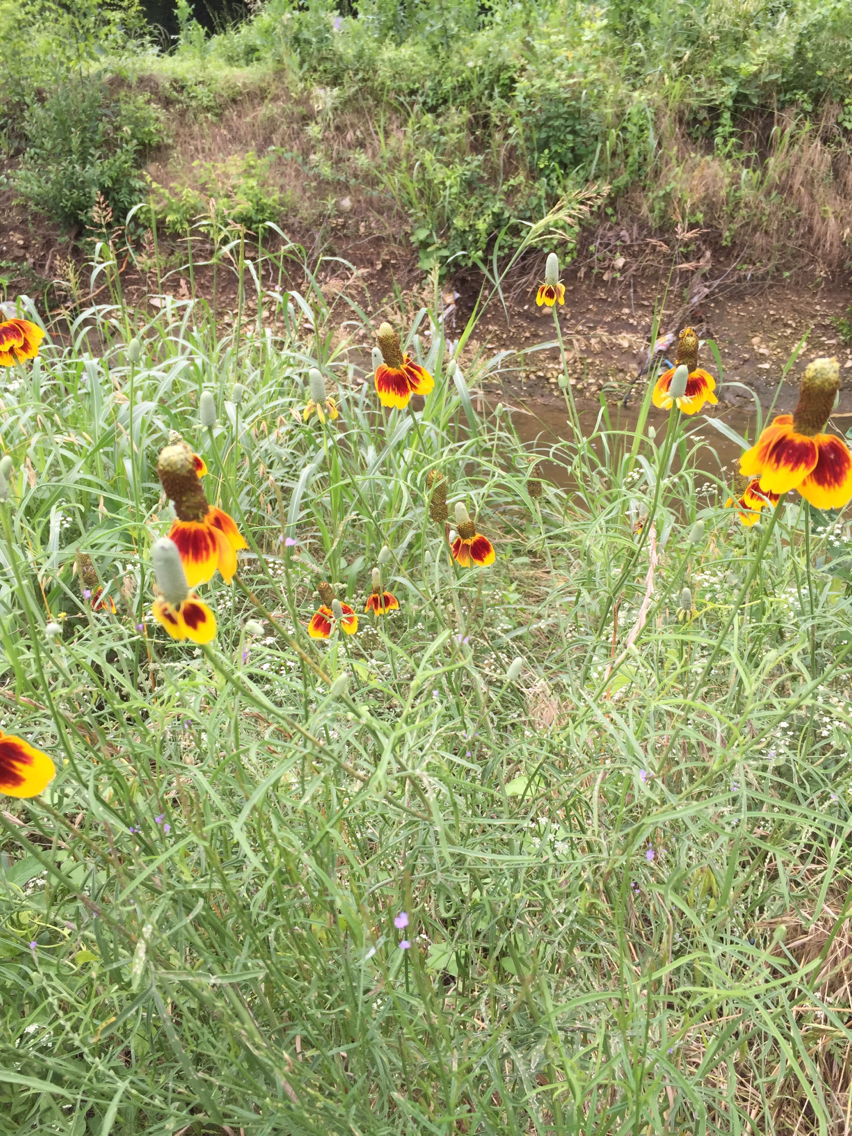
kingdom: Plantae
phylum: Tracheophyta
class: Magnoliopsida
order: Asterales
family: Asteraceae
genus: Ratibida
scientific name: Ratibida columnifera
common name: Prairie coneflower
